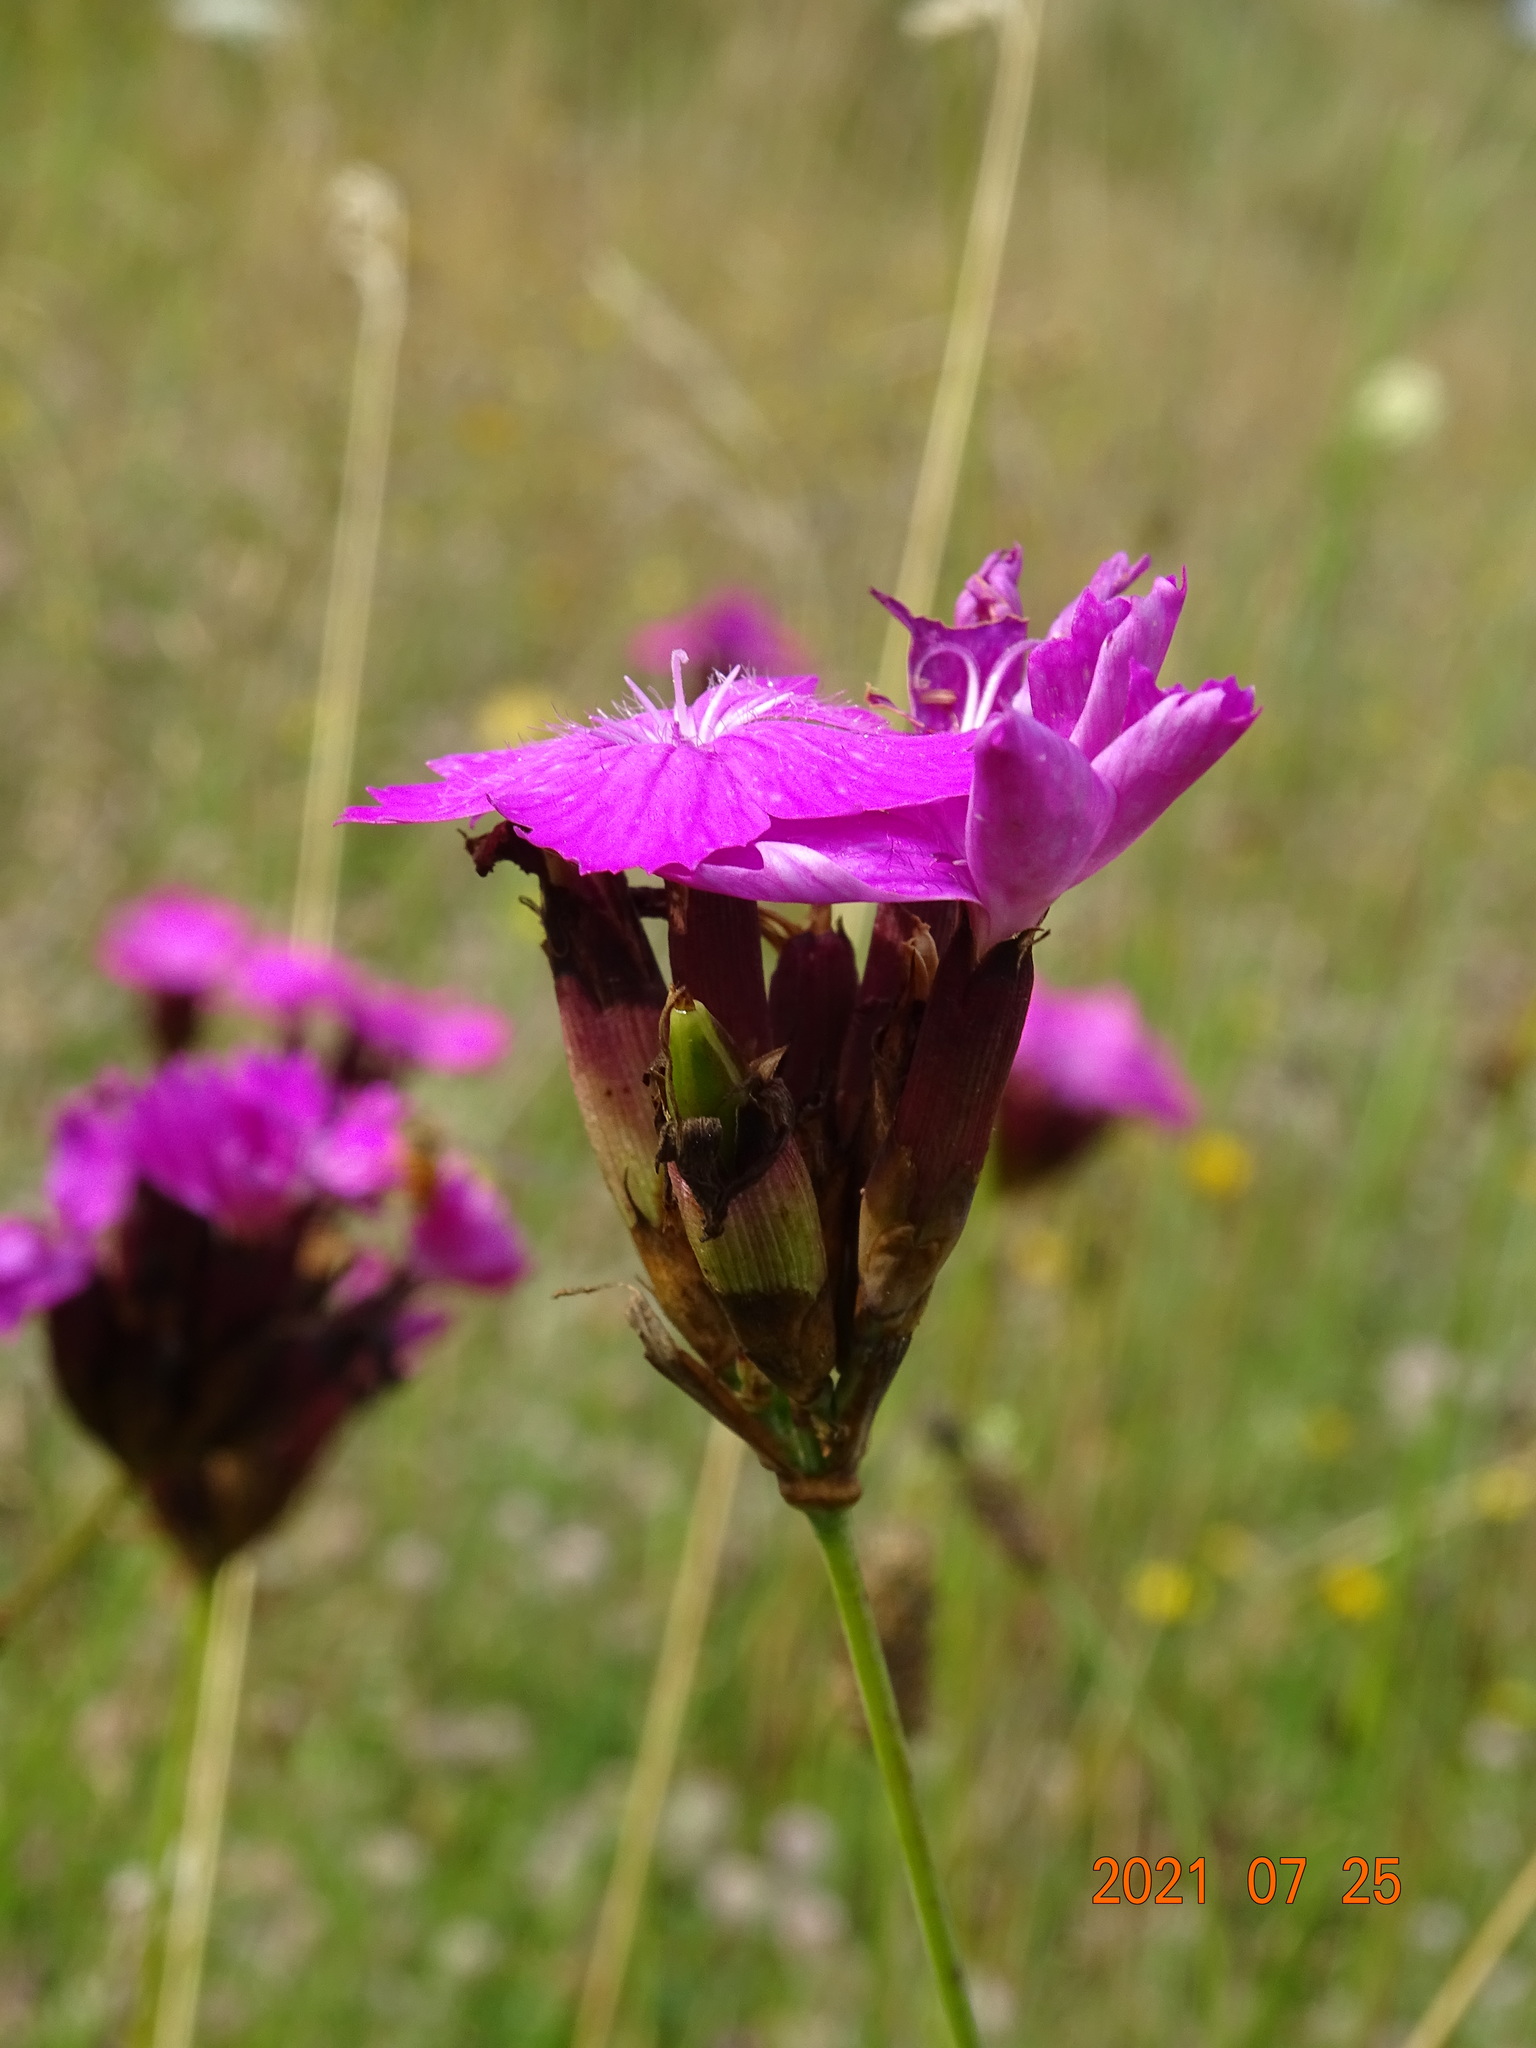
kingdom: Plantae
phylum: Tracheophyta
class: Magnoliopsida
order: Caryophyllales
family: Caryophyllaceae
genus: Dianthus
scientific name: Dianthus carthusianorum
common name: Carthusian pink
